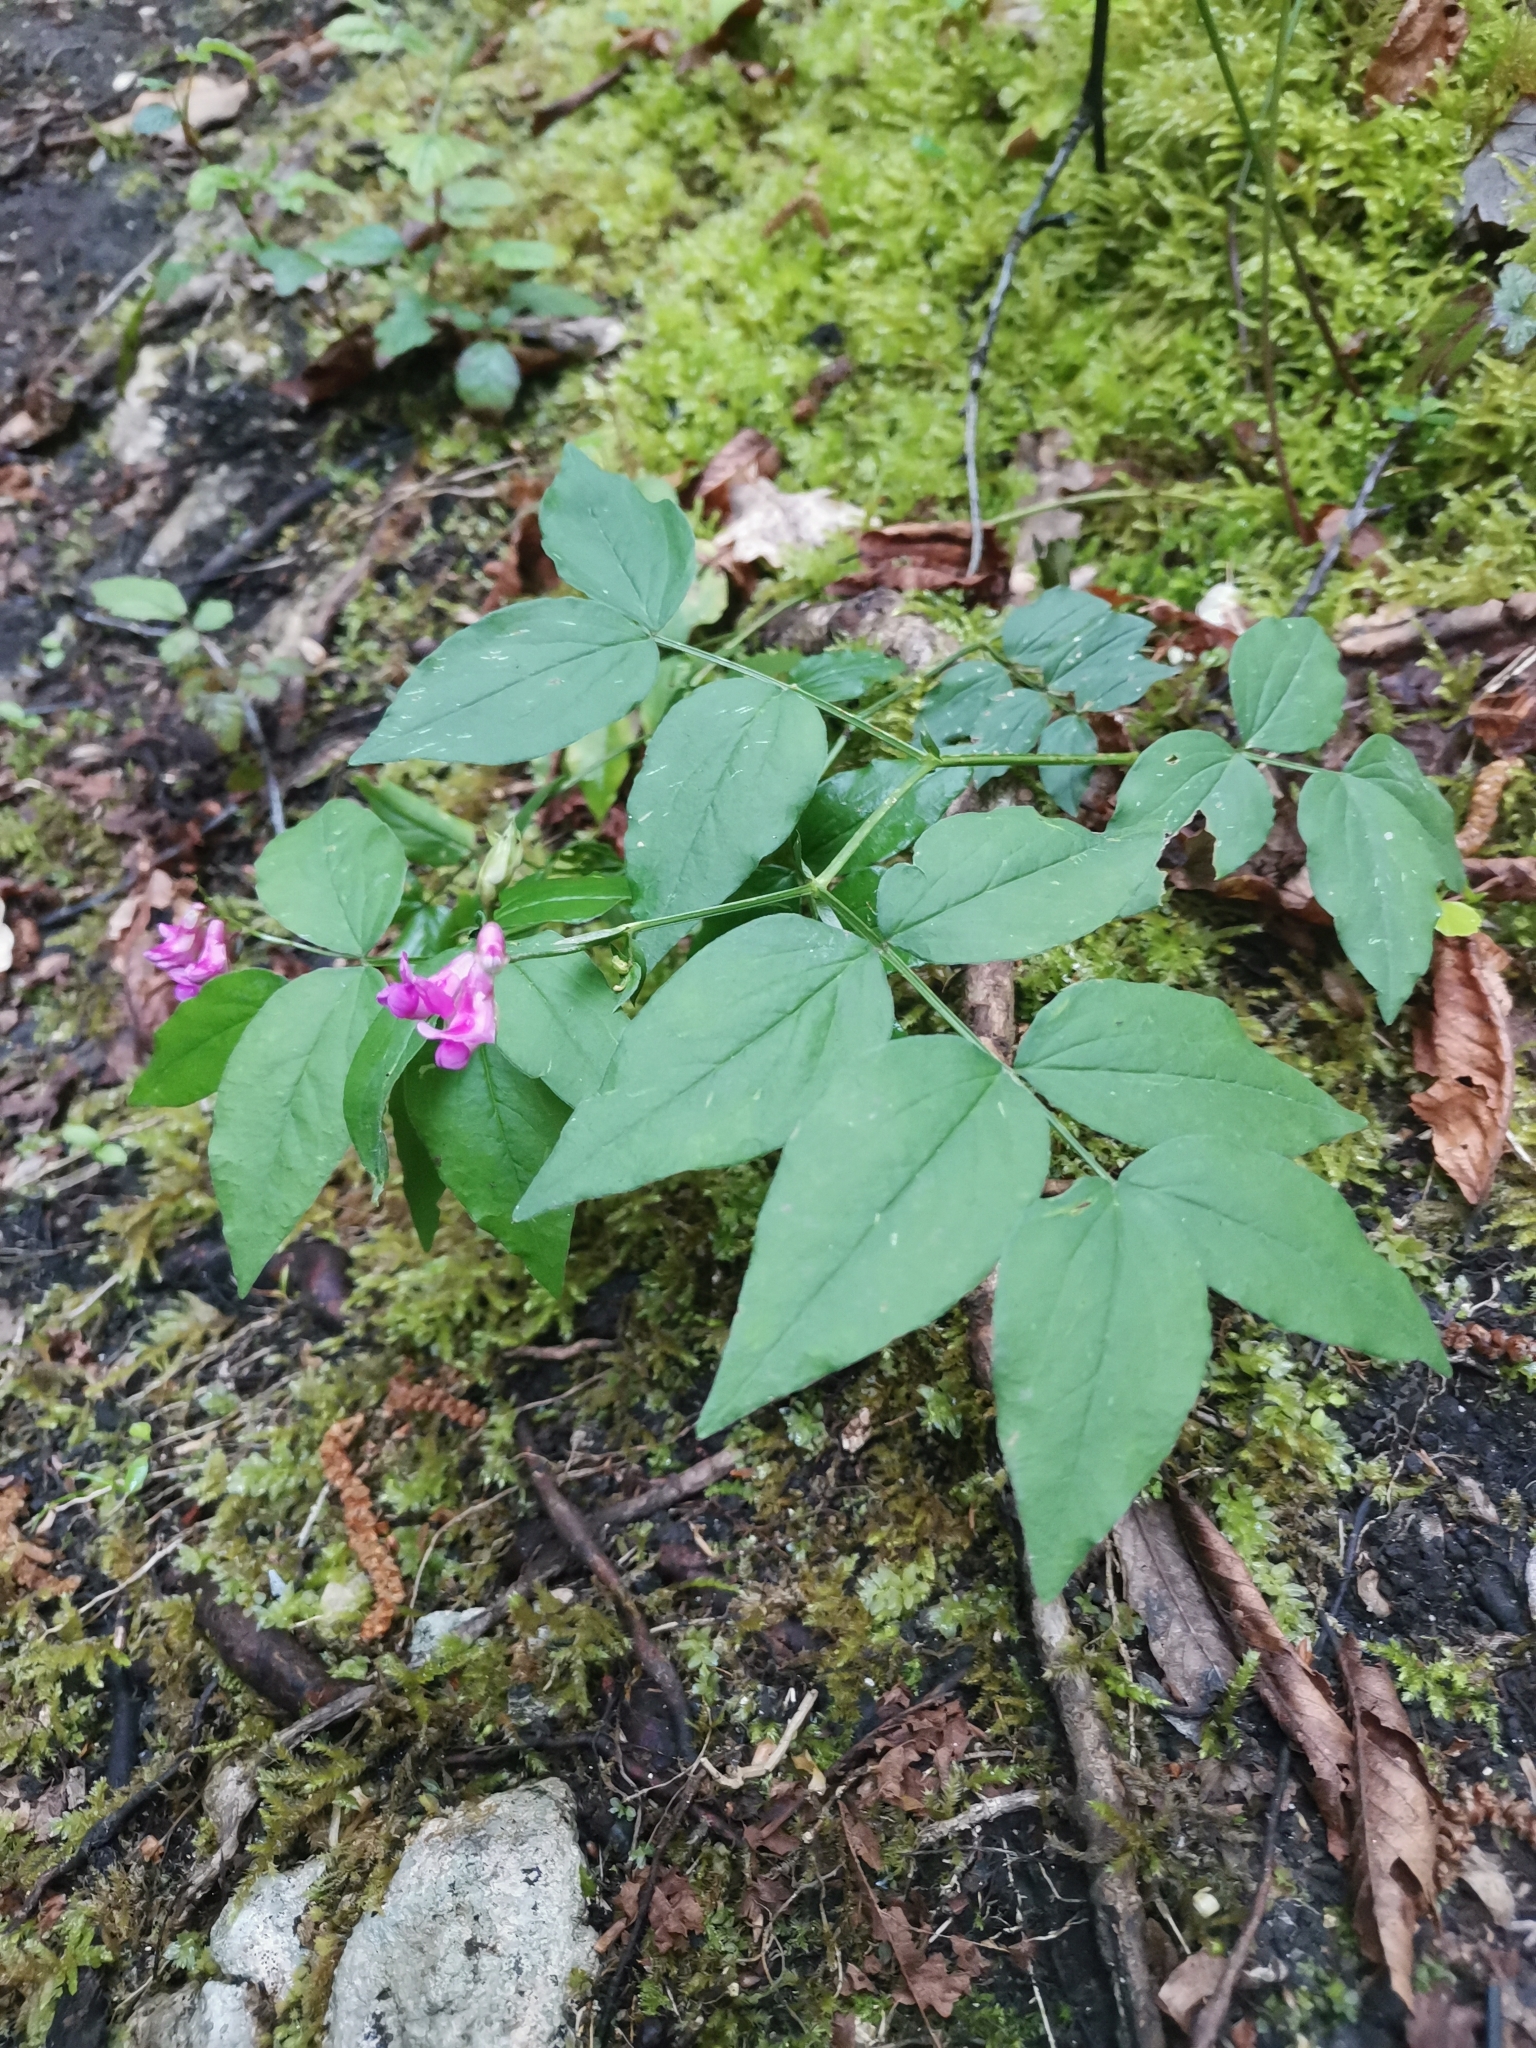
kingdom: Plantae
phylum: Tracheophyta
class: Magnoliopsida
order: Fabales
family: Fabaceae
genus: Lathyrus
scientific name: Lathyrus venetus
